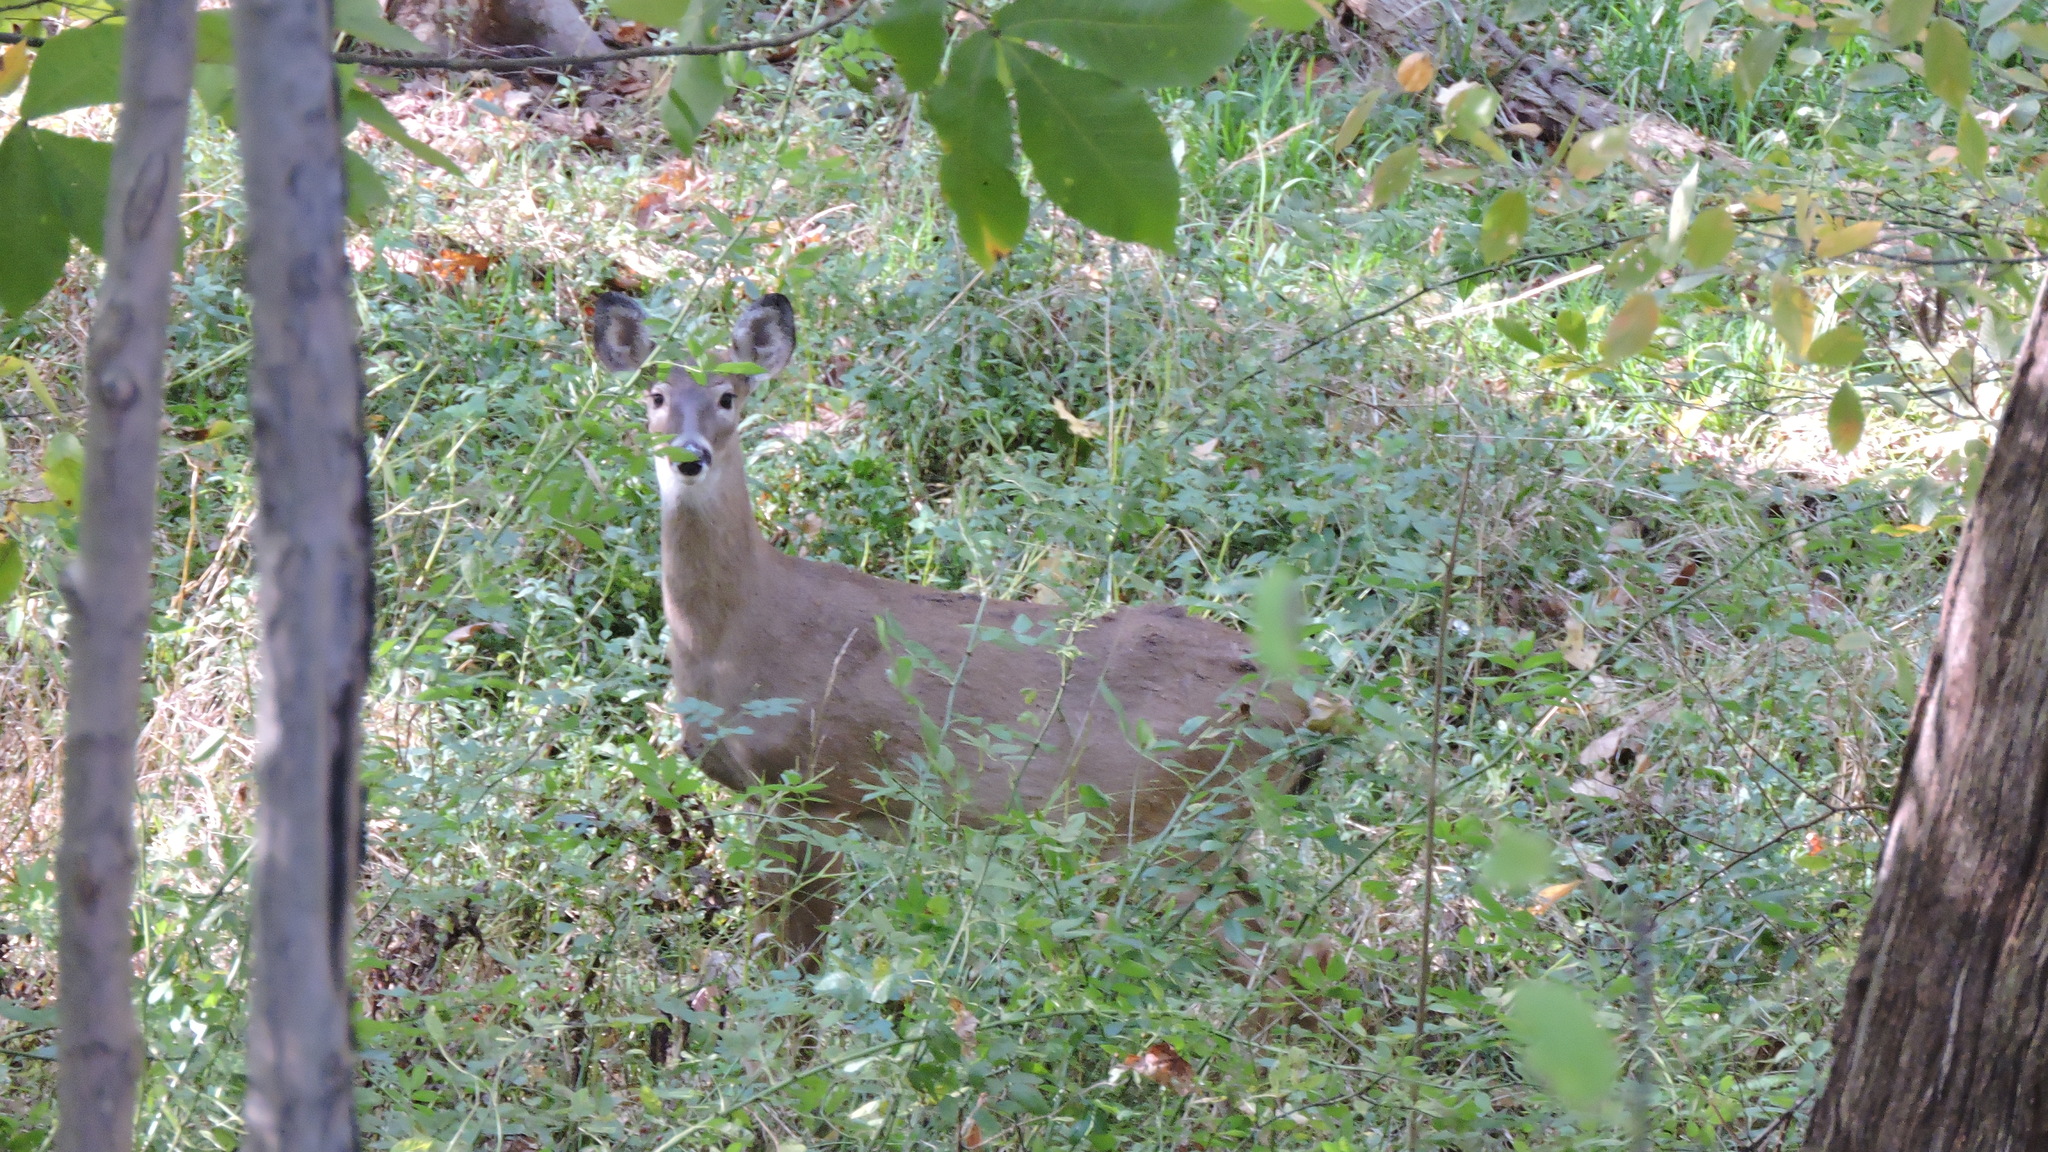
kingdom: Animalia
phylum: Chordata
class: Mammalia
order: Artiodactyla
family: Cervidae
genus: Odocoileus
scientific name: Odocoileus virginianus
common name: White-tailed deer
